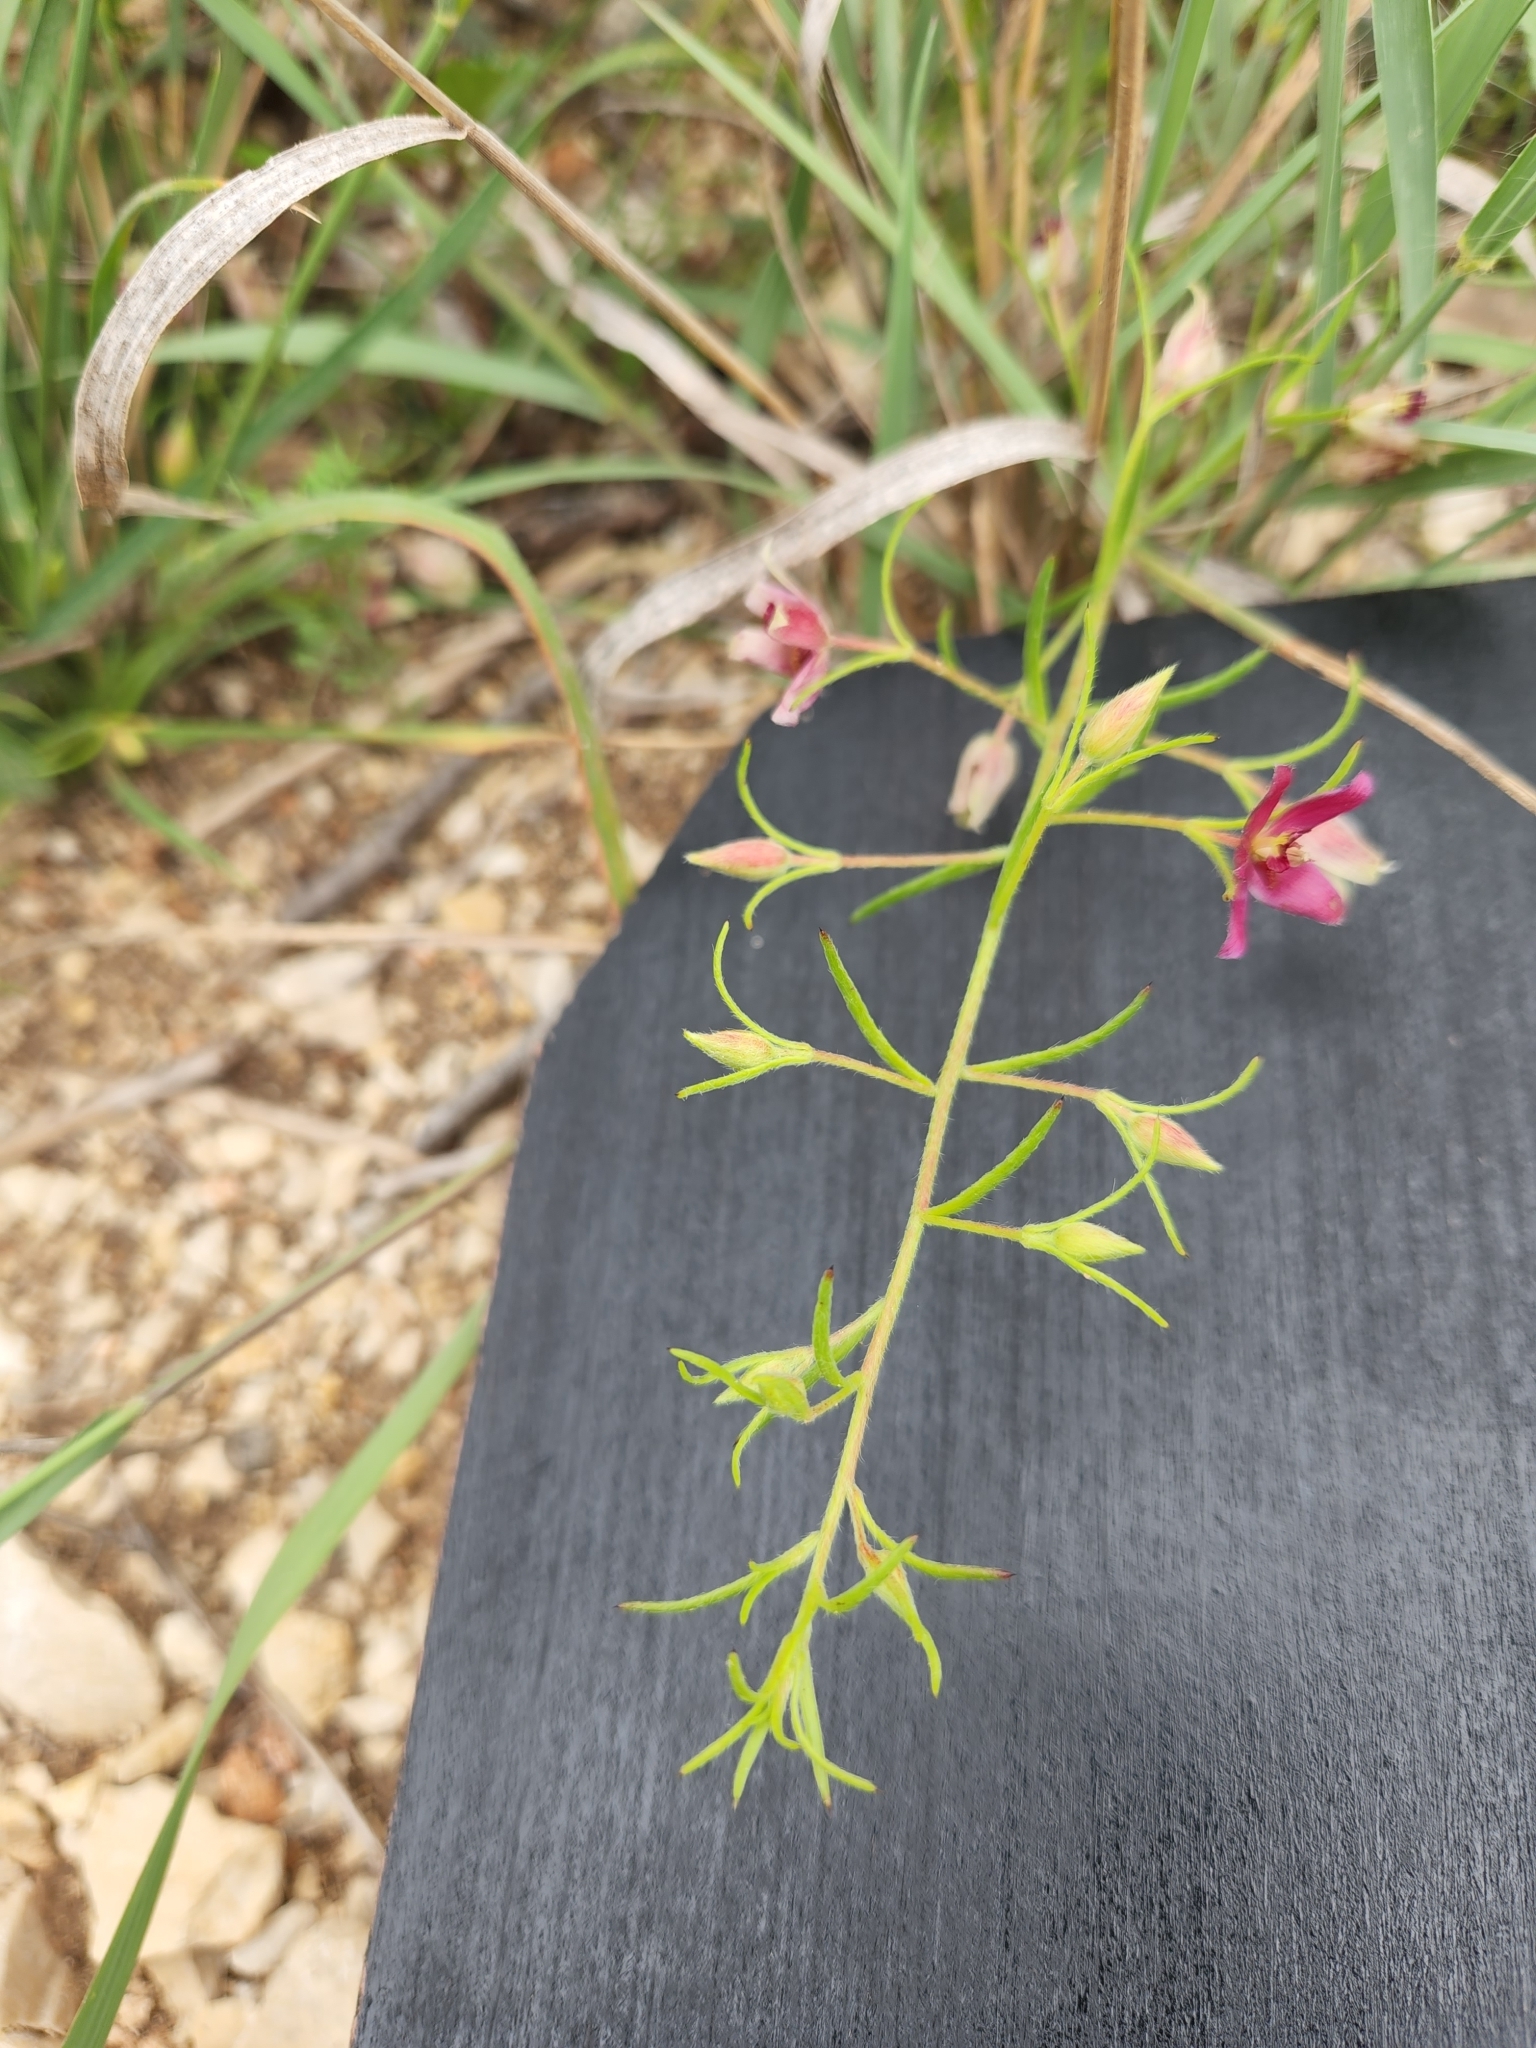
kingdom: Plantae
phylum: Tracheophyta
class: Magnoliopsida
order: Zygophyllales
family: Krameriaceae
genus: Krameria
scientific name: Krameria lanceolata
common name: Ratany
